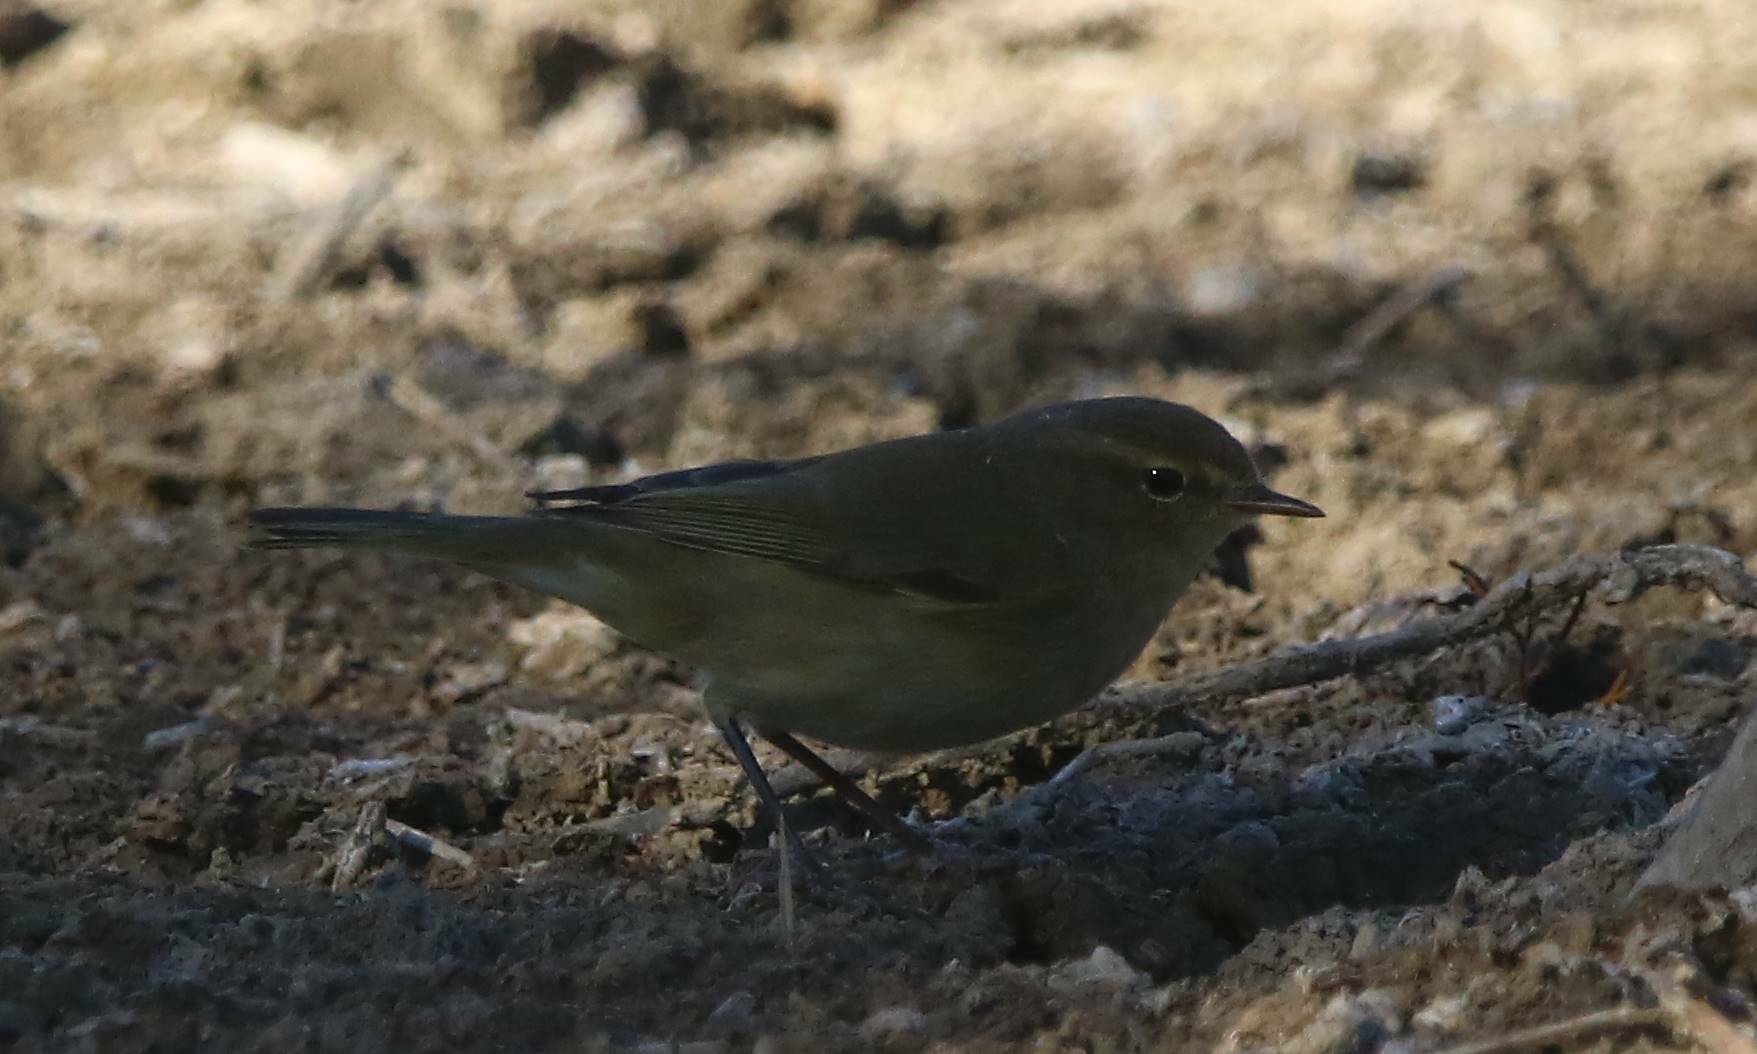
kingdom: Animalia
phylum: Chordata
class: Aves
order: Passeriformes
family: Phylloscopidae
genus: Phylloscopus
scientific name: Phylloscopus collybita
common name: Common chiffchaff
